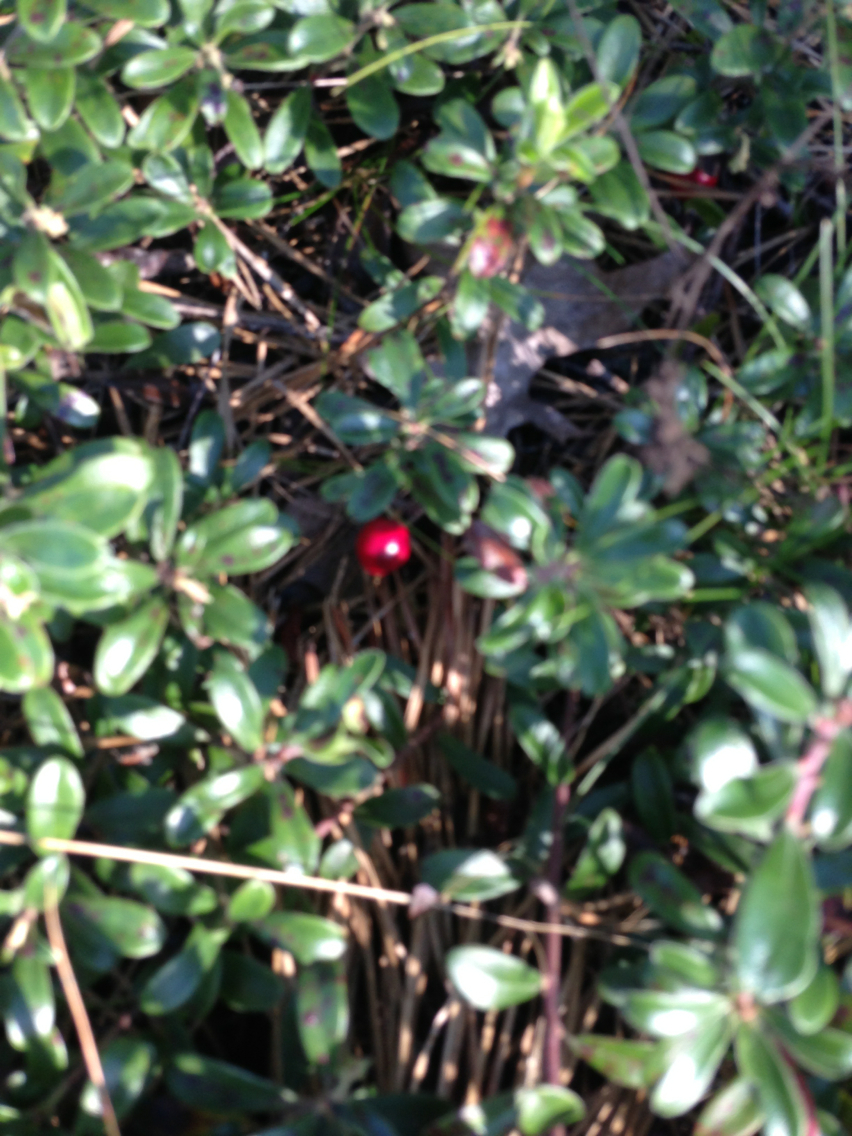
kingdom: Plantae
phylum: Tracheophyta
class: Magnoliopsida
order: Ericales
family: Ericaceae
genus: Arctostaphylos
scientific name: Arctostaphylos uva-ursi
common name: Bearberry
